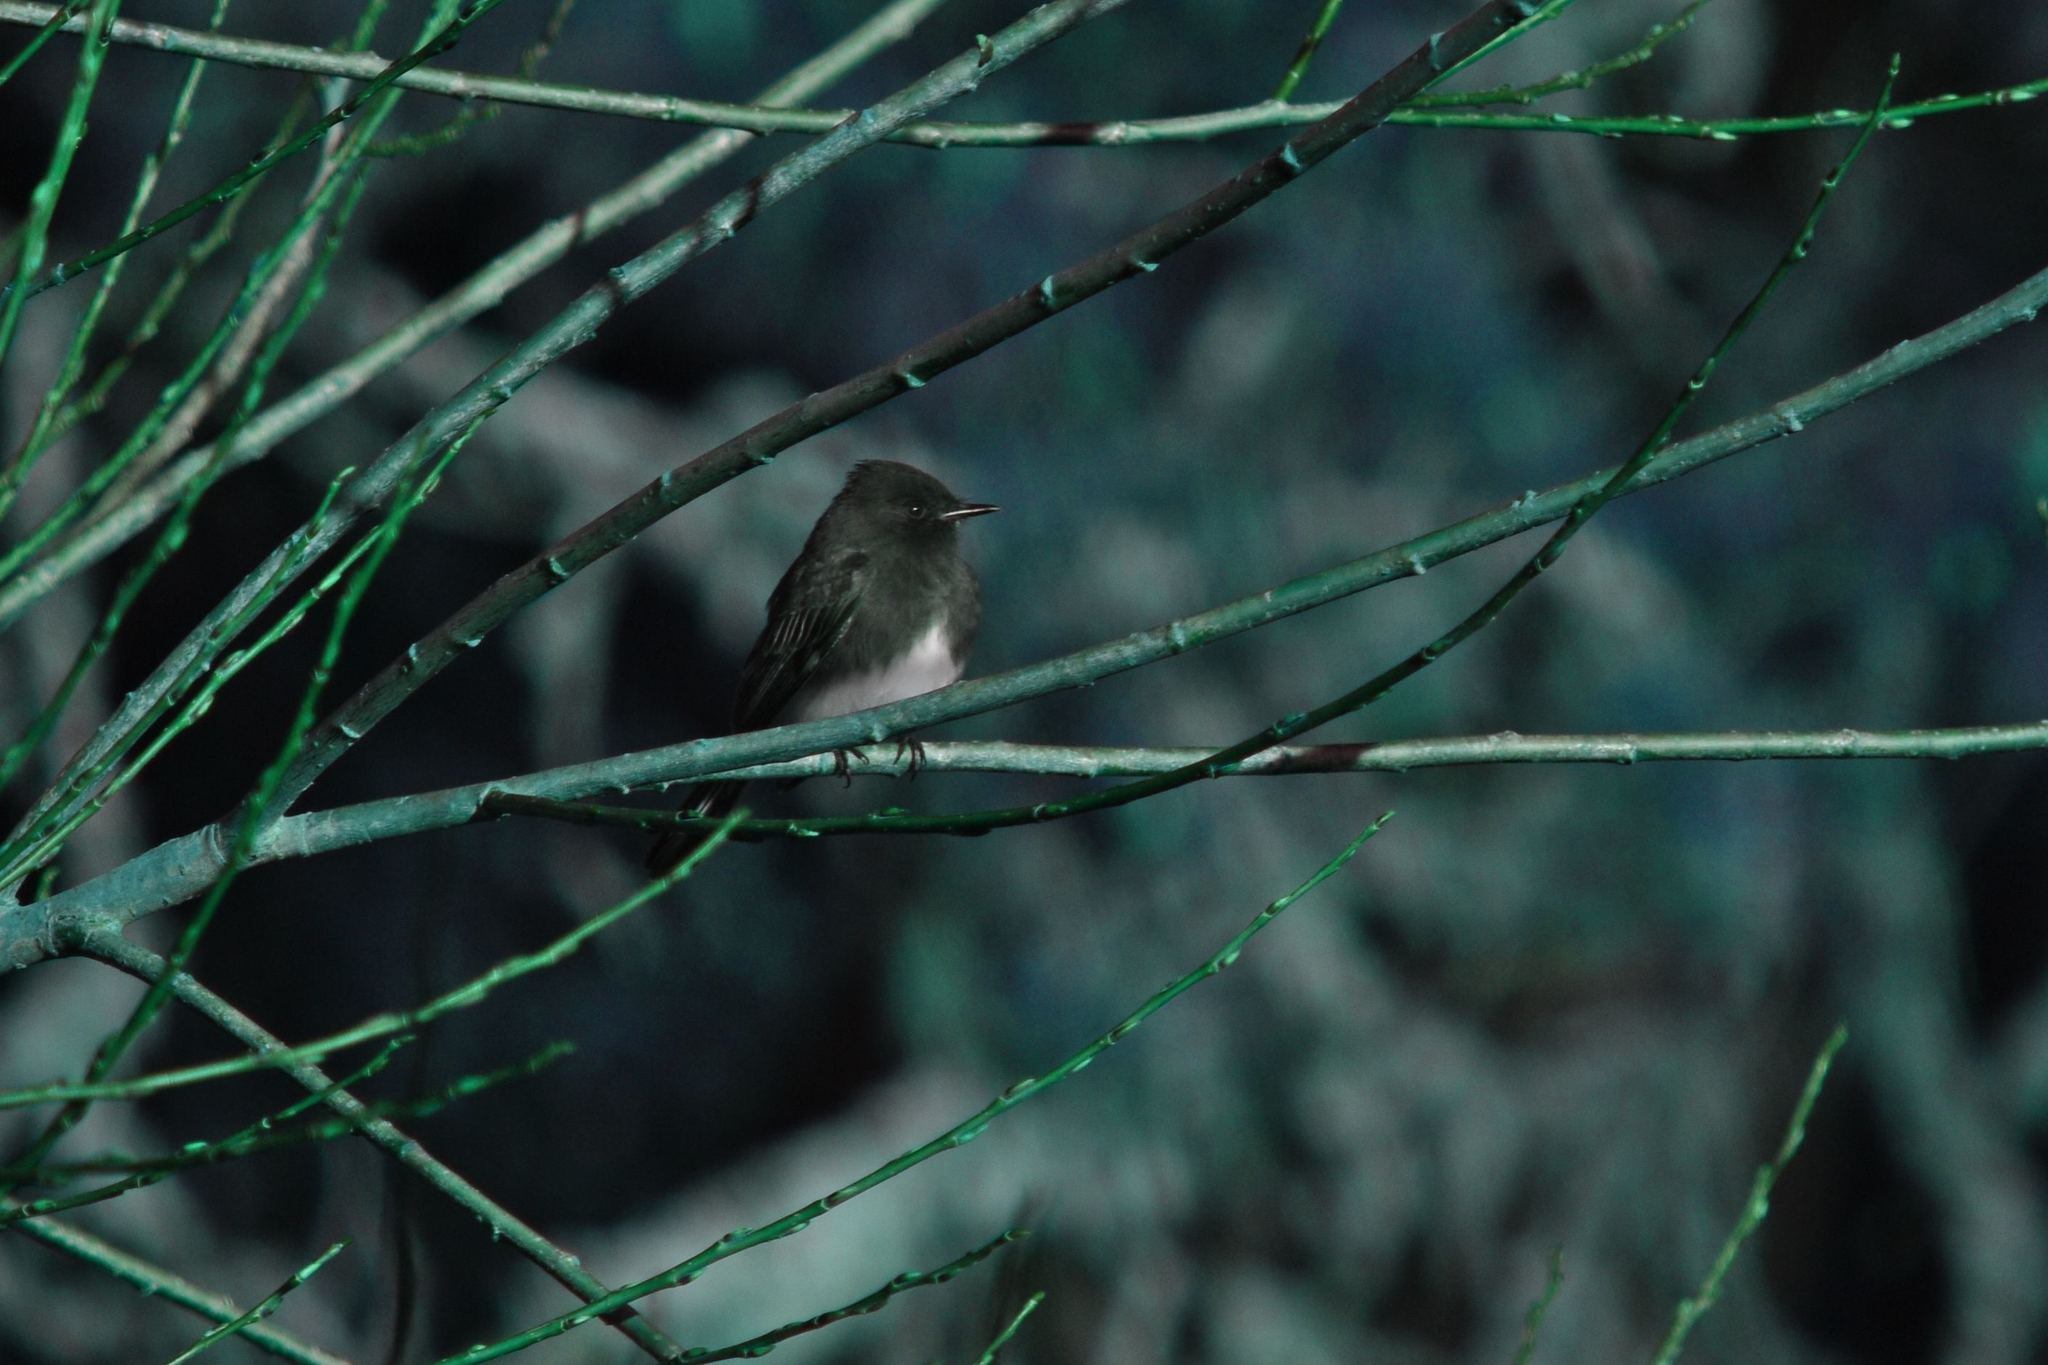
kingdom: Animalia
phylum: Chordata
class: Aves
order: Passeriformes
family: Tyrannidae
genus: Sayornis
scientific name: Sayornis nigricans
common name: Black phoebe
